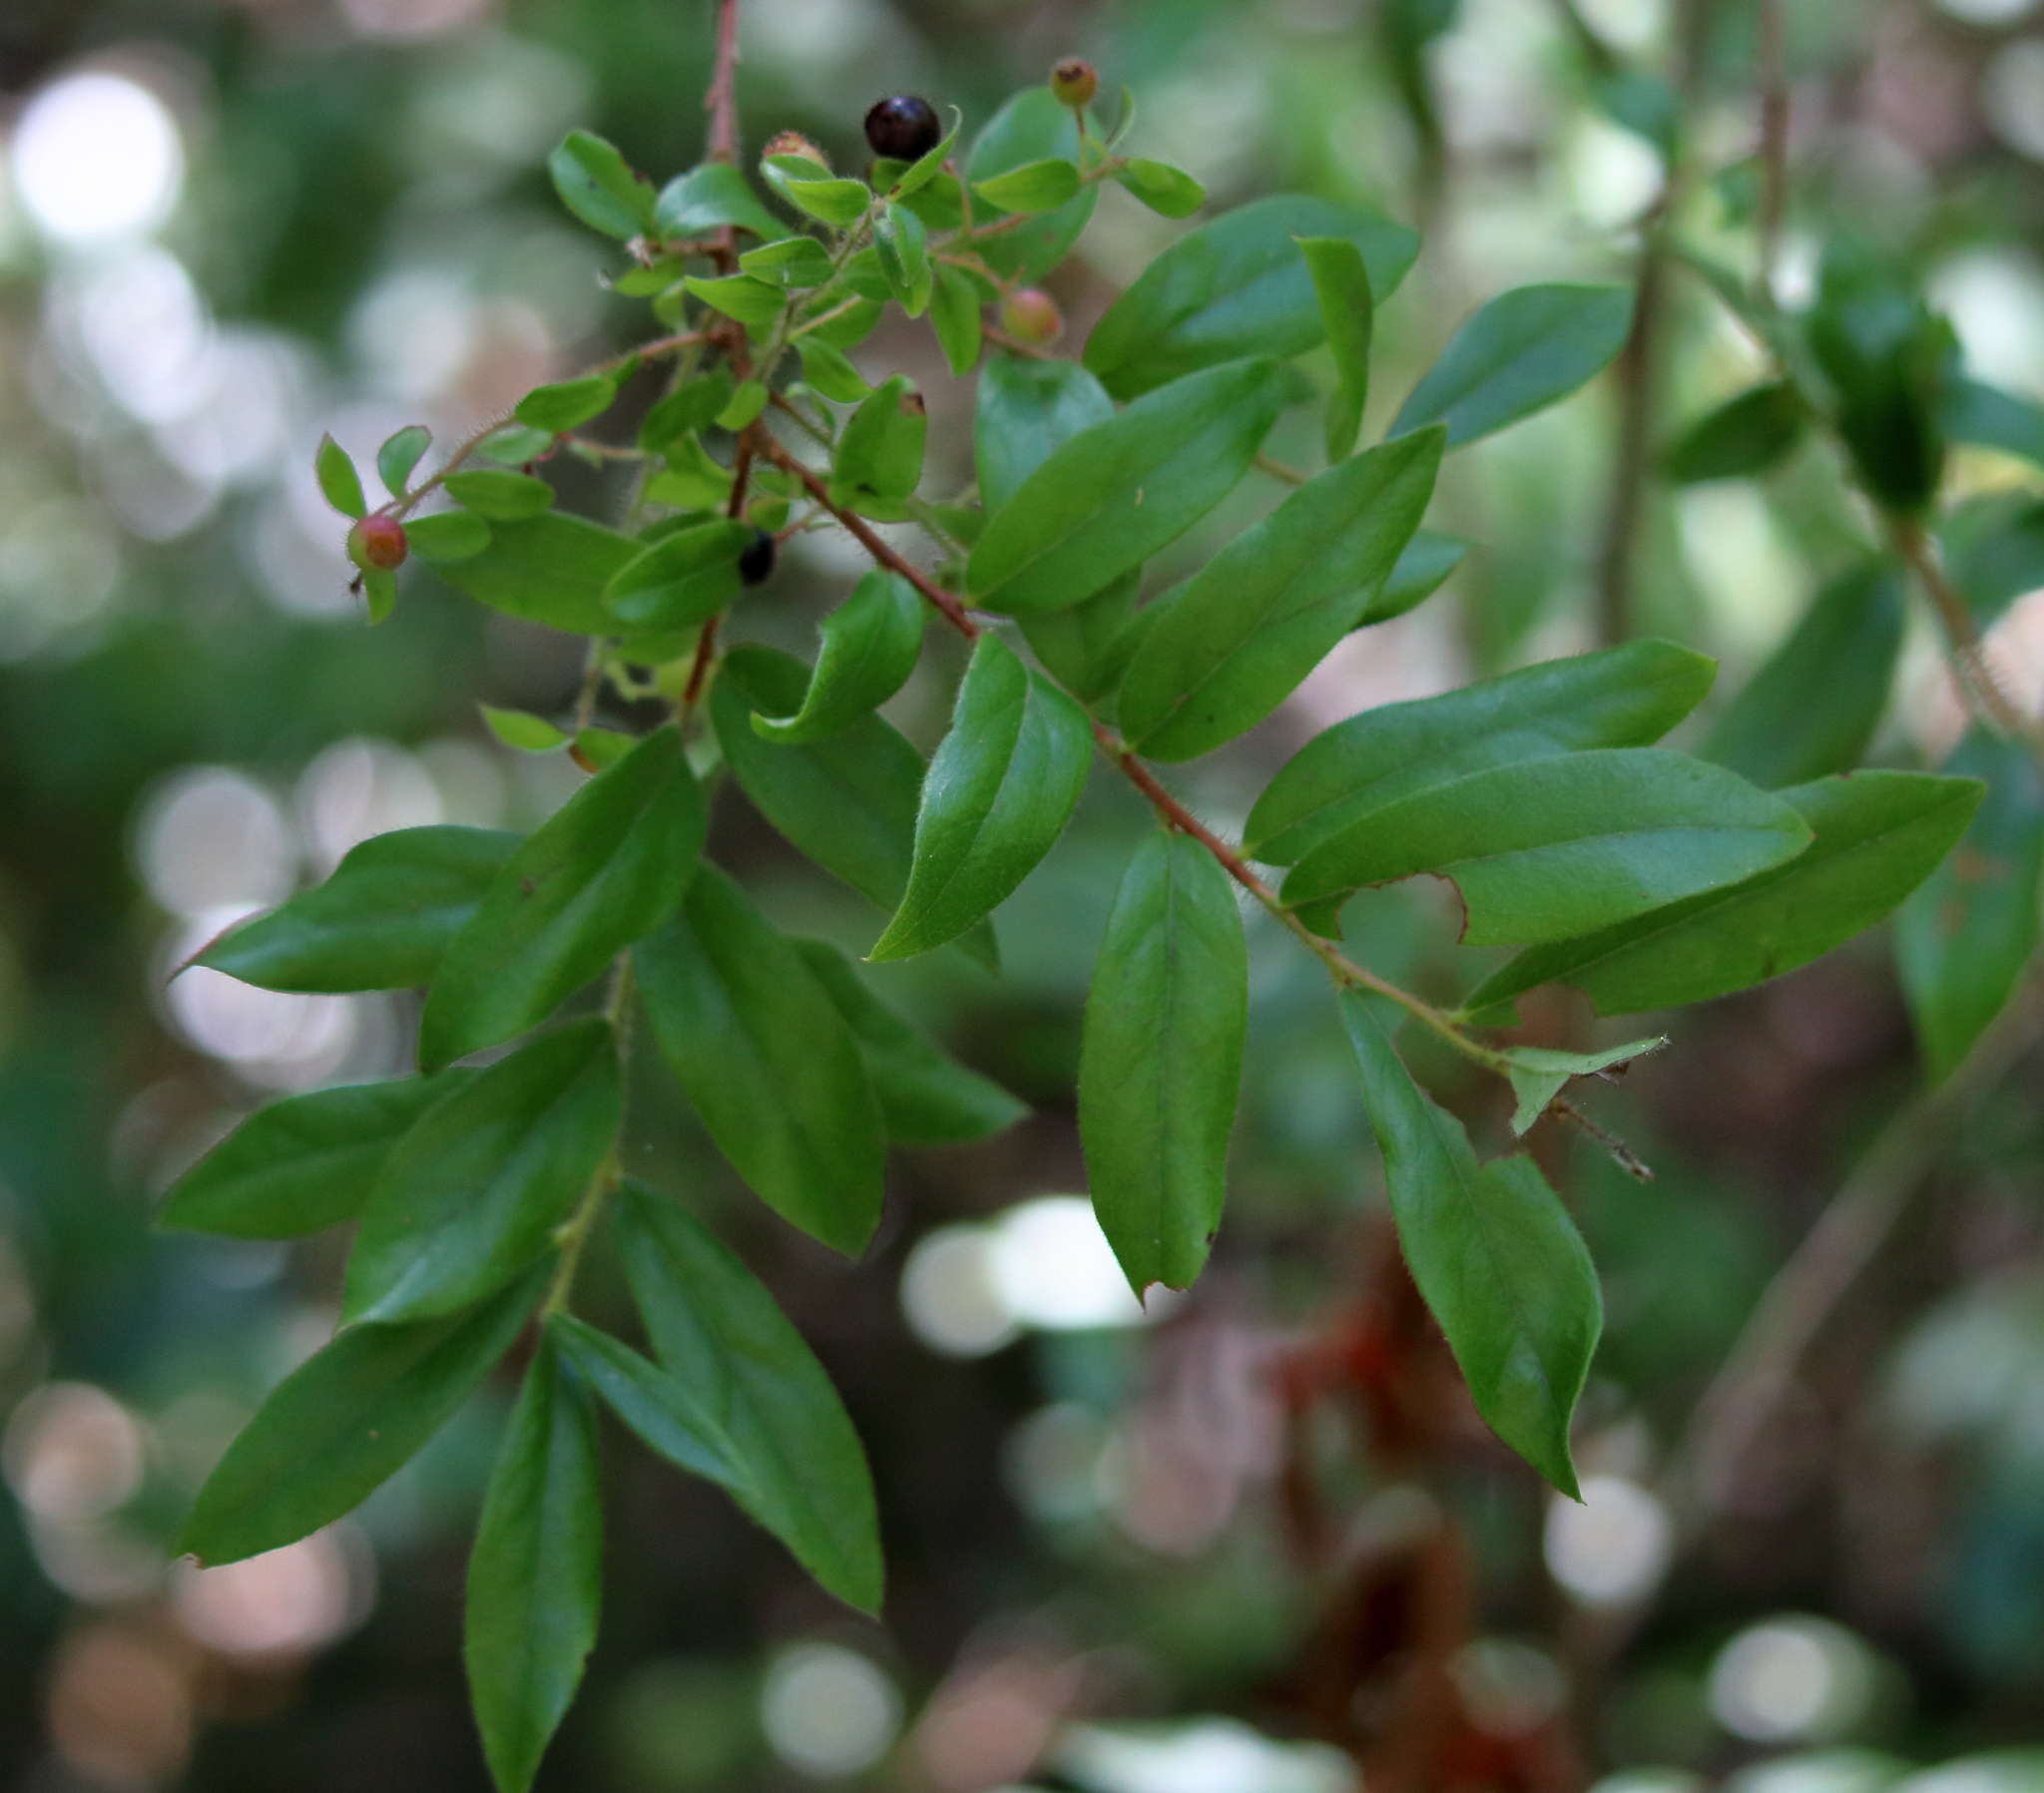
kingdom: Plantae
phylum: Tracheophyta
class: Magnoliopsida
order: Ericales
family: Ericaceae
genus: Gaylussacia
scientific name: Gaylussacia mosieri
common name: Hirsute huckleberry
